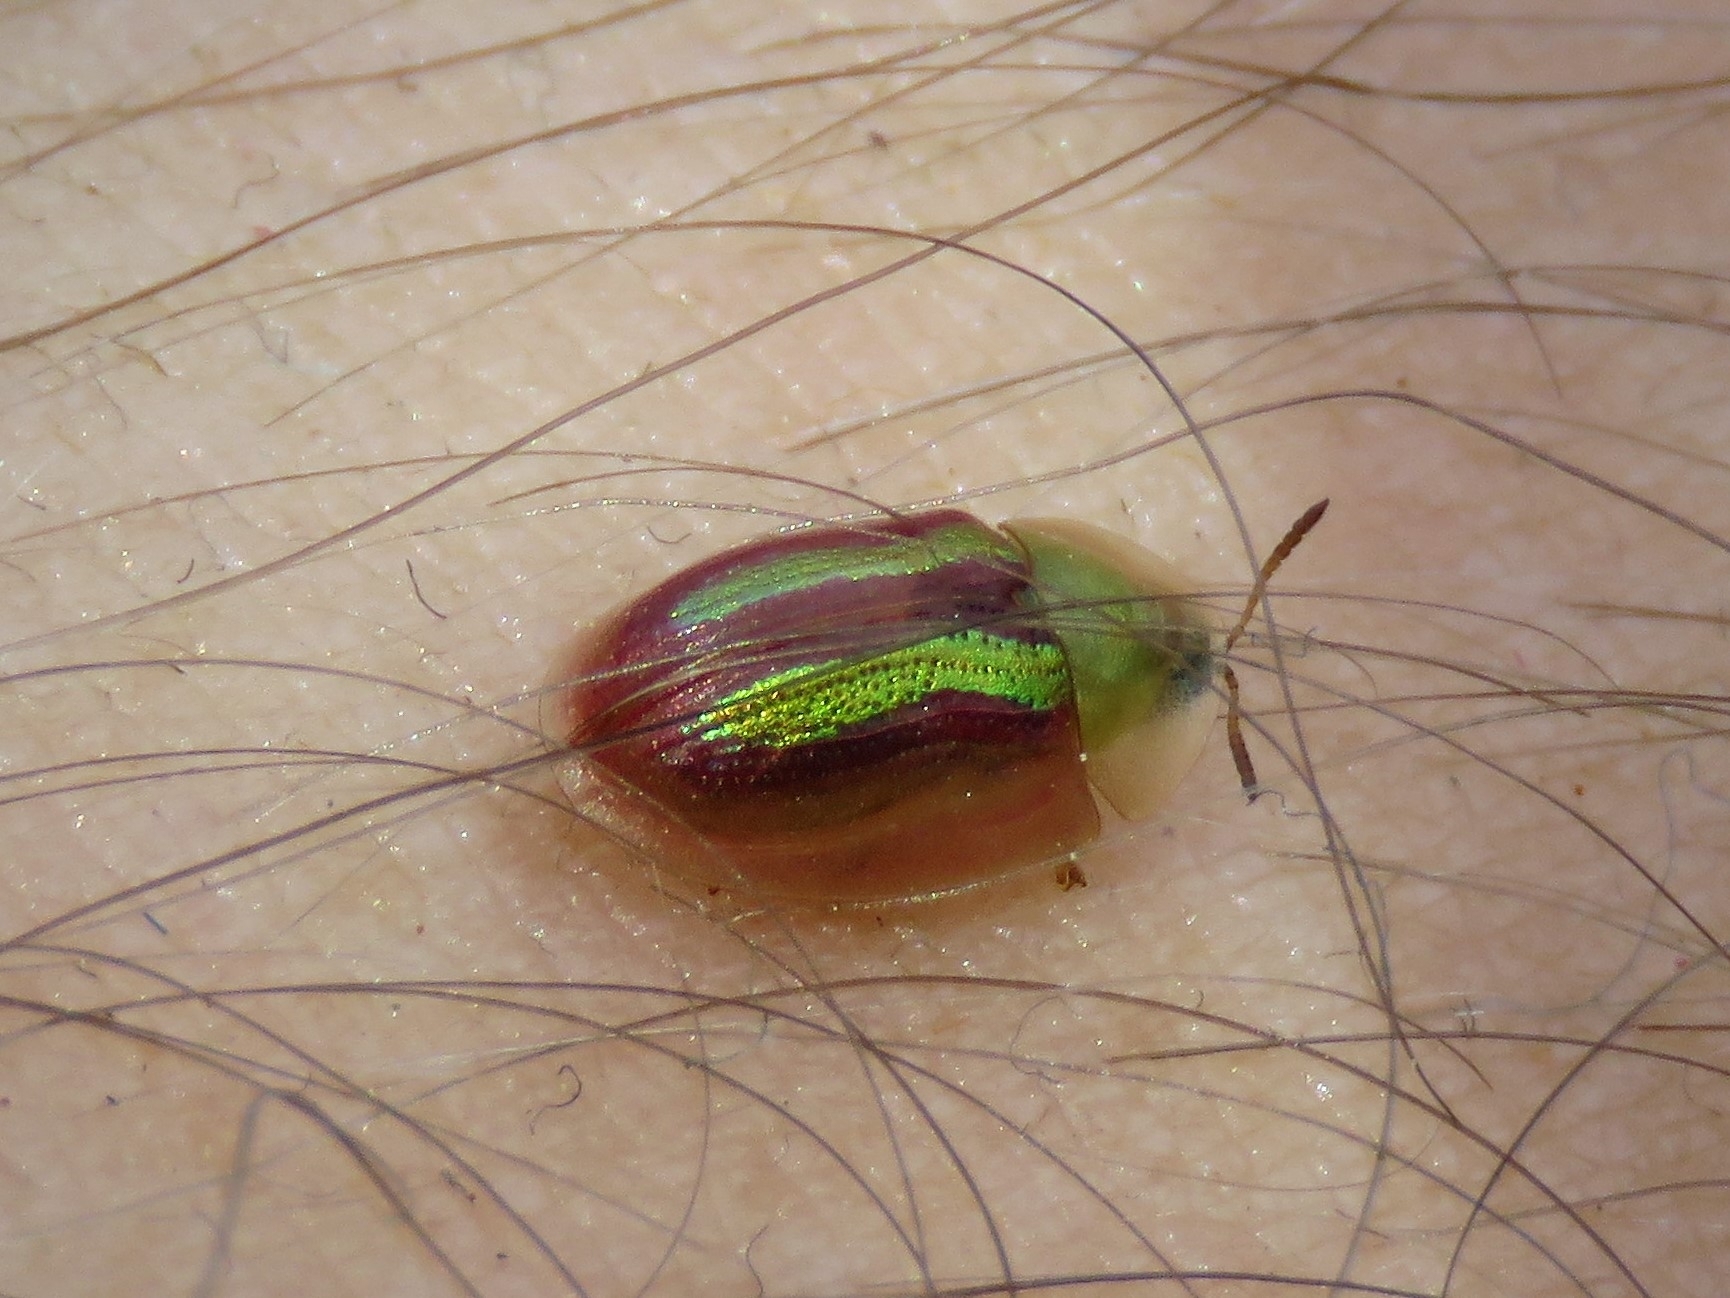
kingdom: Animalia
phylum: Arthropoda
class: Insecta
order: Coleoptera
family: Chrysomelidae
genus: Cassida
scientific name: Cassida vittata
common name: Bordered tortoise beetle
